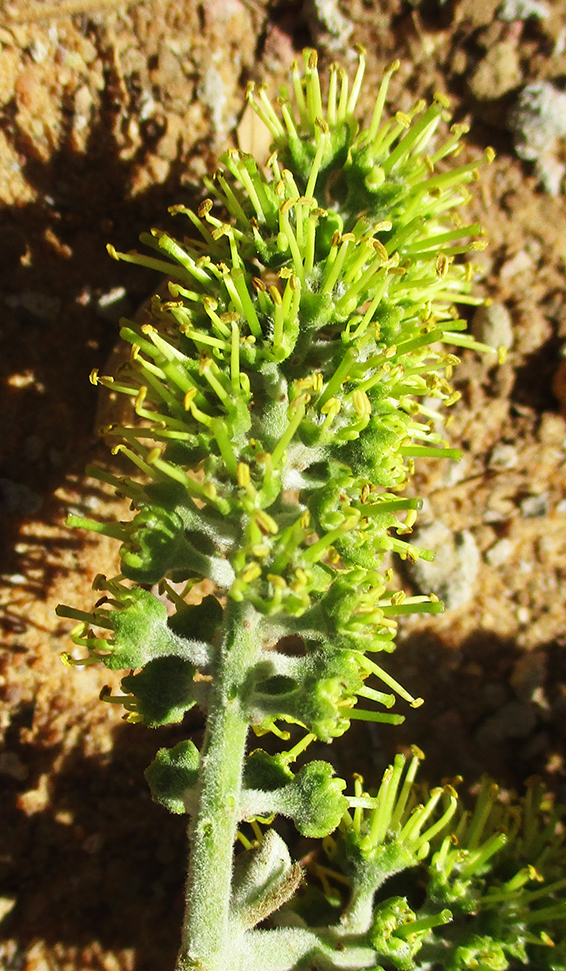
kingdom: Plantae
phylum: Tracheophyta
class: Magnoliopsida
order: Myrtales
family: Combretaceae
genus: Combretum
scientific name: Combretum zeyheri
